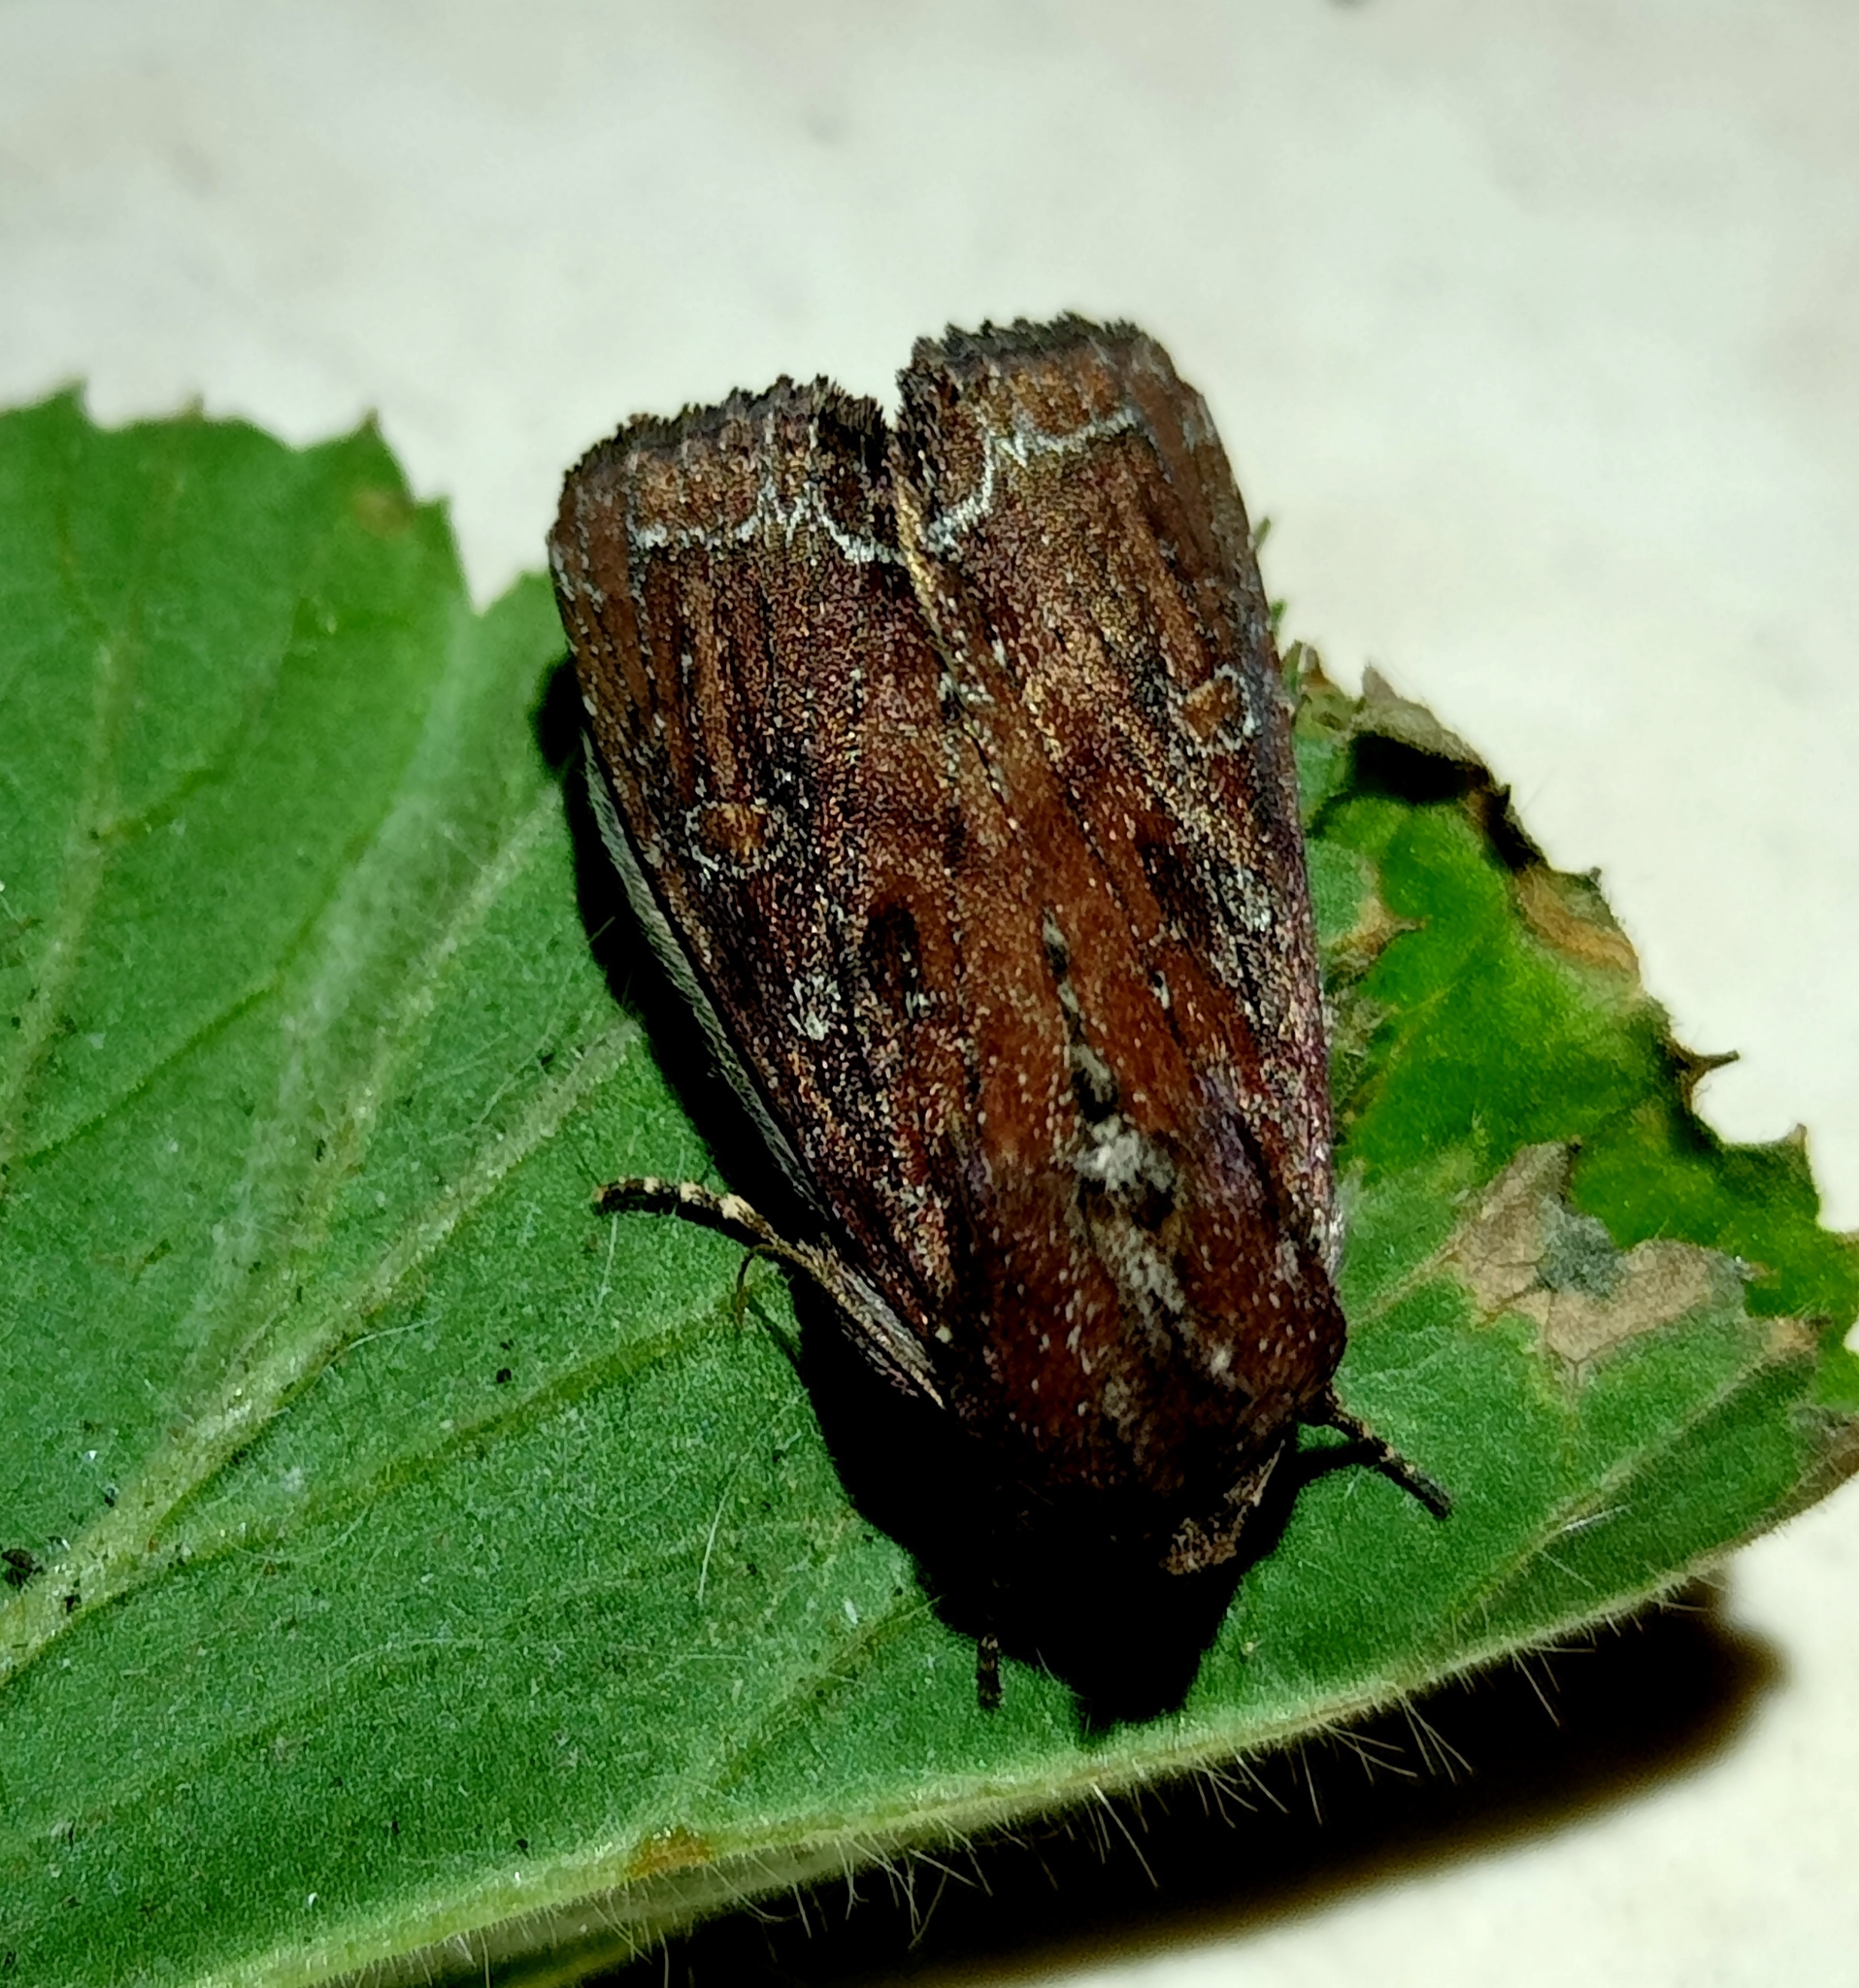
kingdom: Animalia
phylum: Arthropoda
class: Insecta
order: Lepidoptera
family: Noctuidae
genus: Lacanobia
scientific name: Lacanobia oleracea
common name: Bright-line brown-eye
